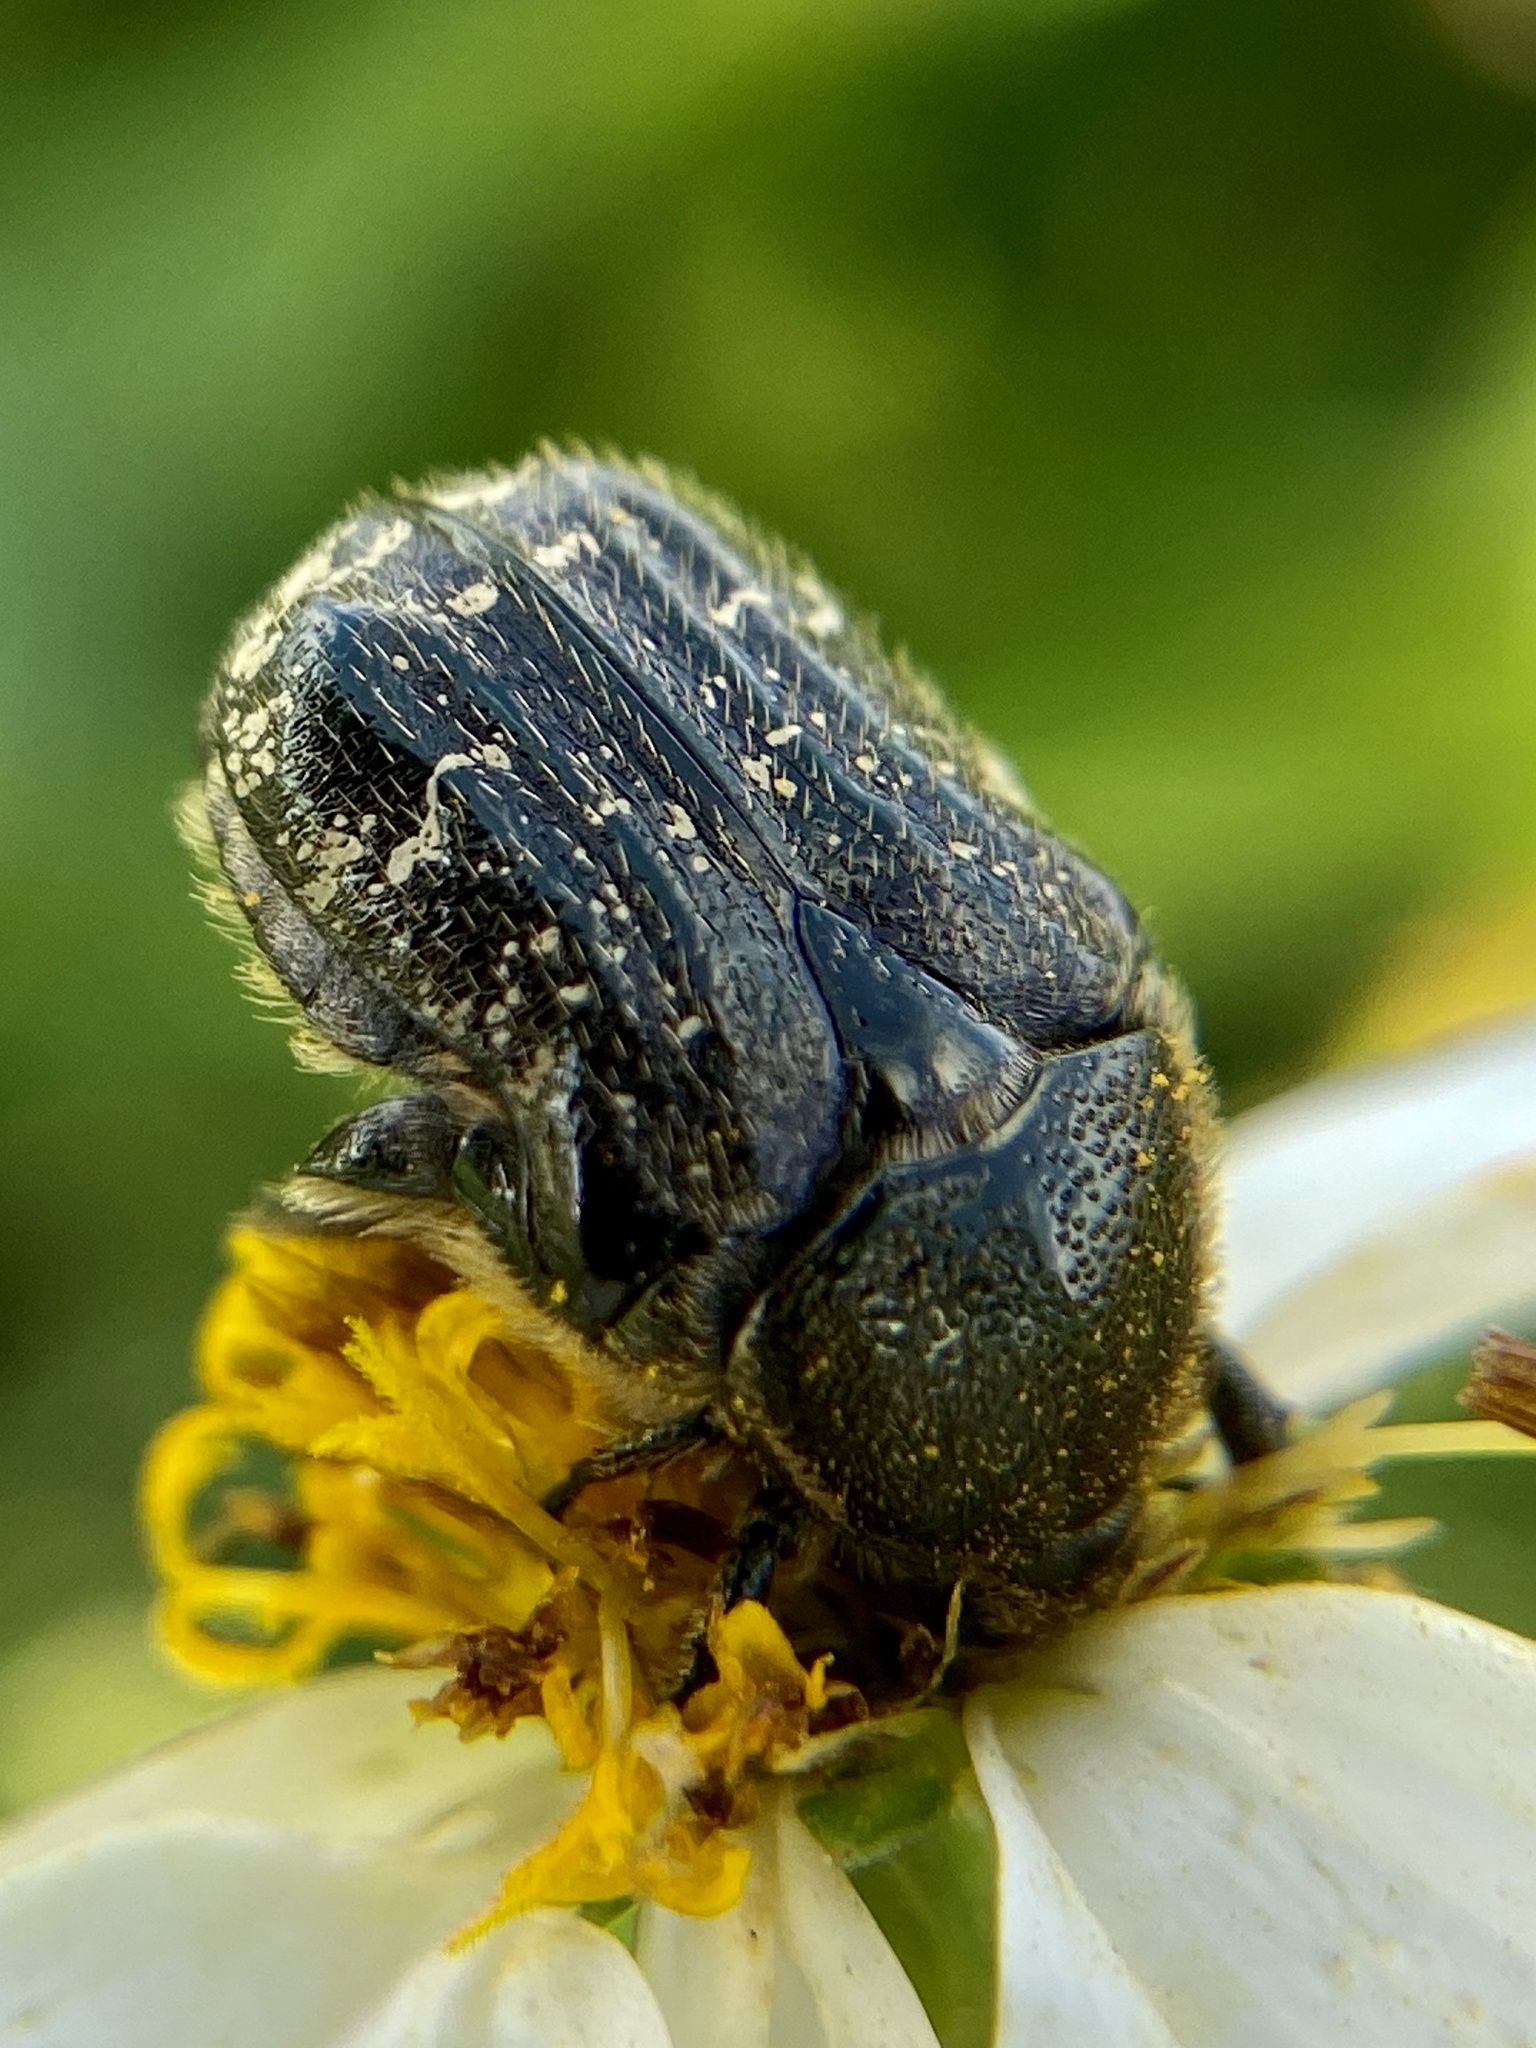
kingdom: Animalia
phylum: Arthropoda
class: Insecta
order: Coleoptera
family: Scarabaeidae
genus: Euphoria
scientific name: Euphoria sepulcralis
